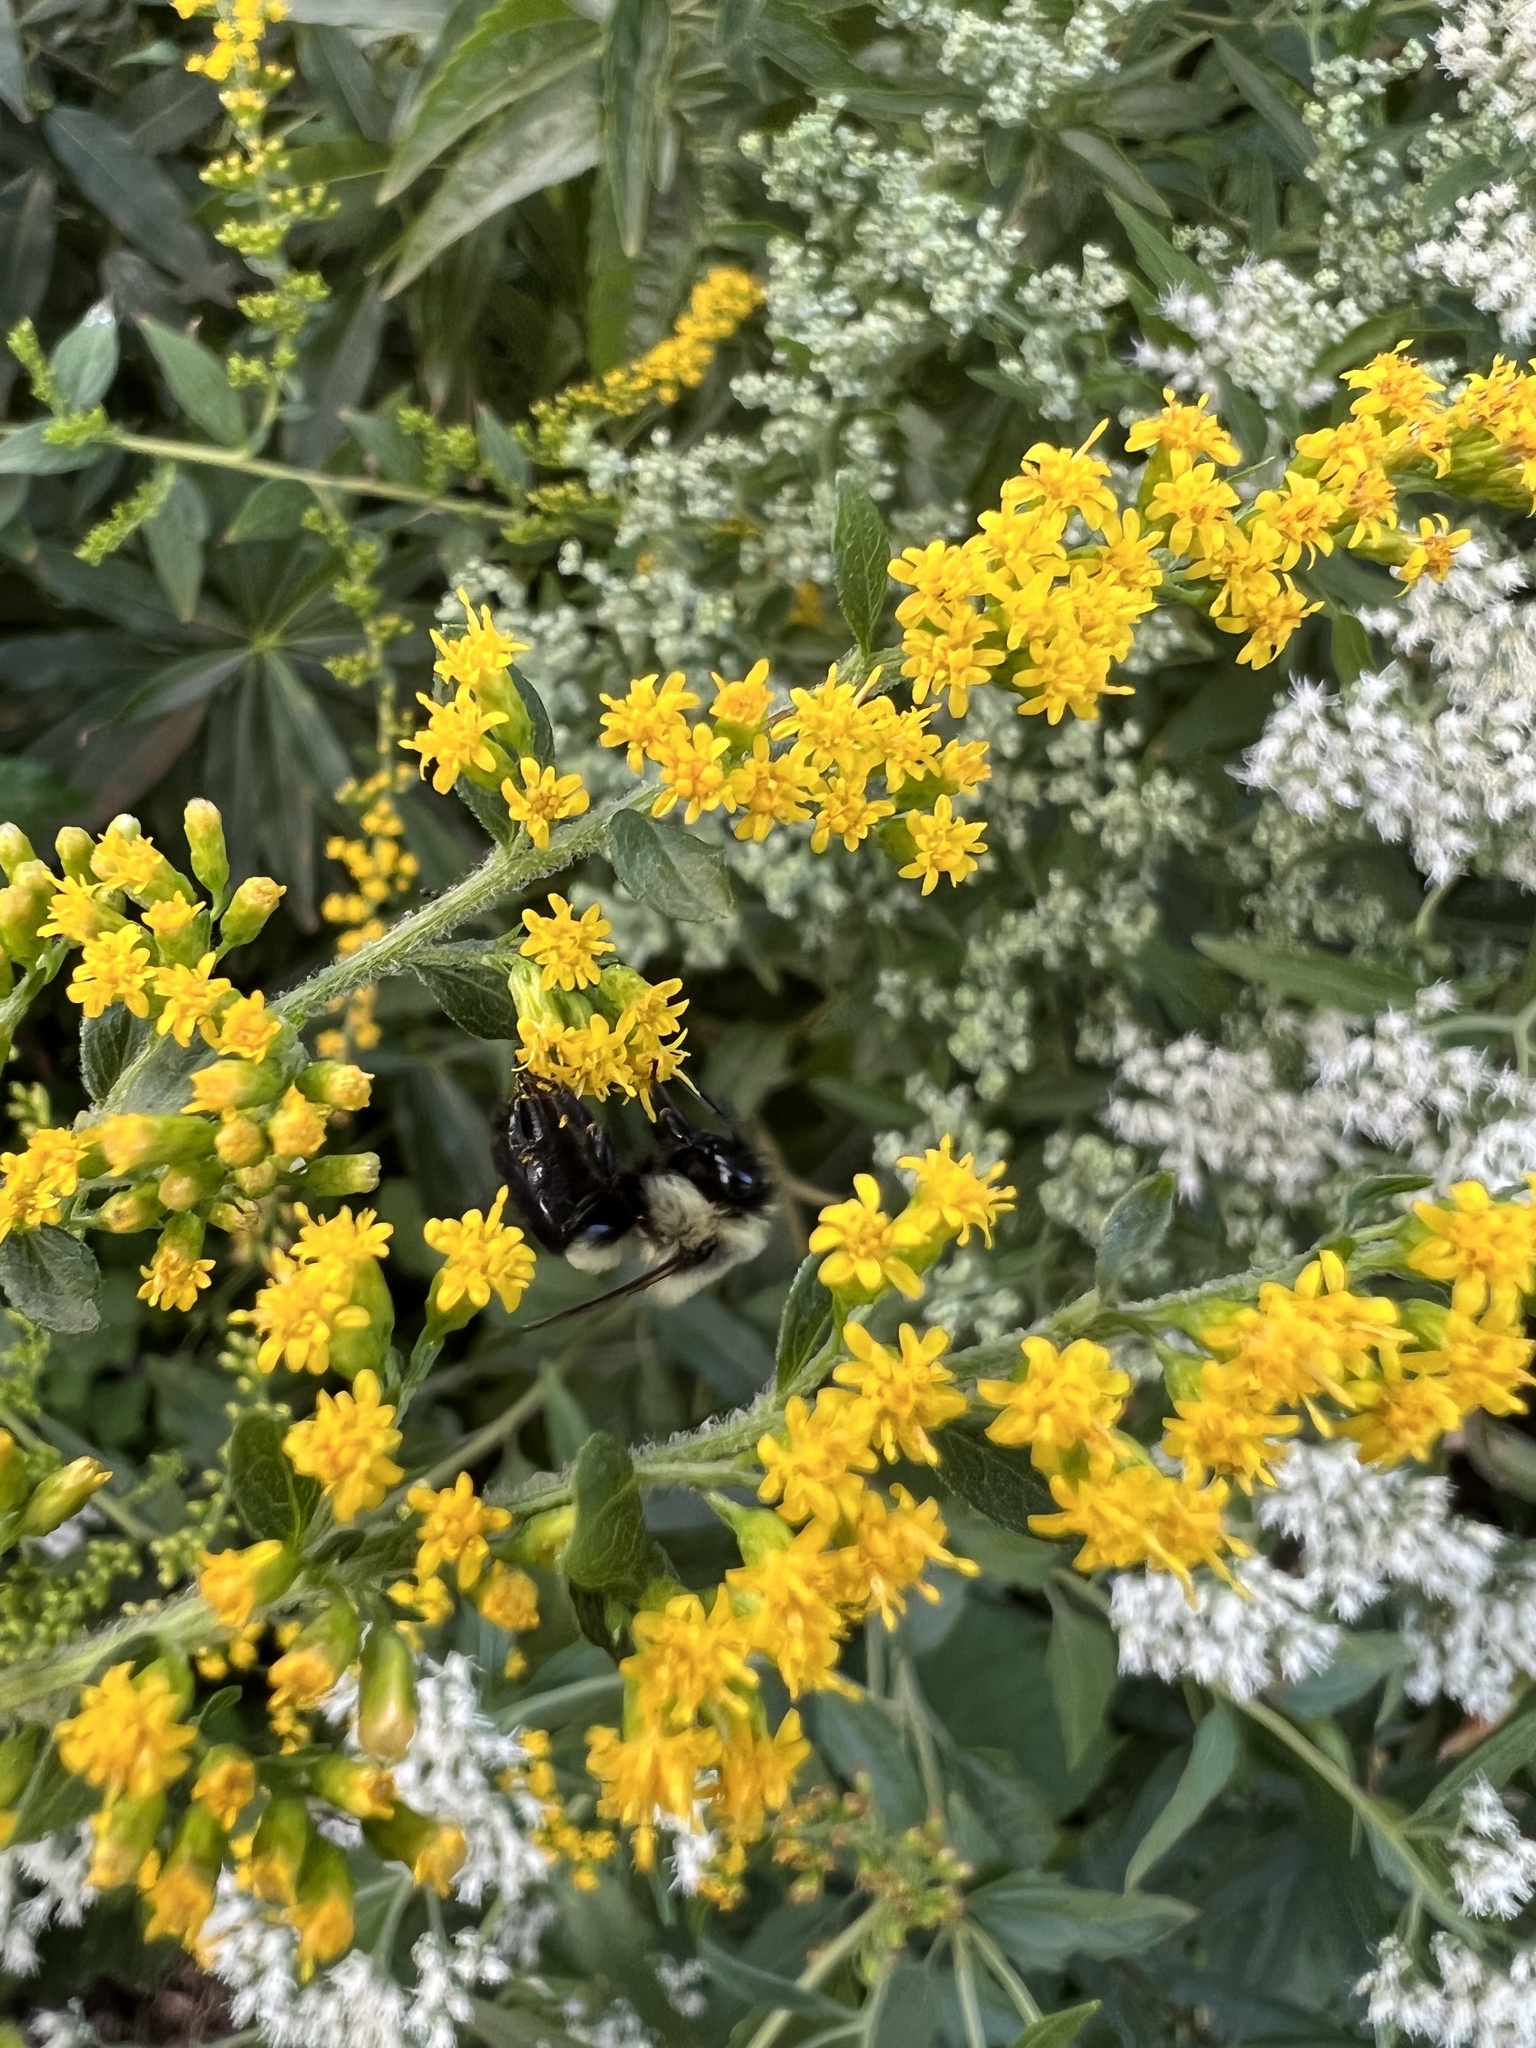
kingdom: Animalia
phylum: Arthropoda
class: Insecta
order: Hymenoptera
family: Apidae
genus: Bombus
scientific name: Bombus impatiens
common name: Common eastern bumble bee
